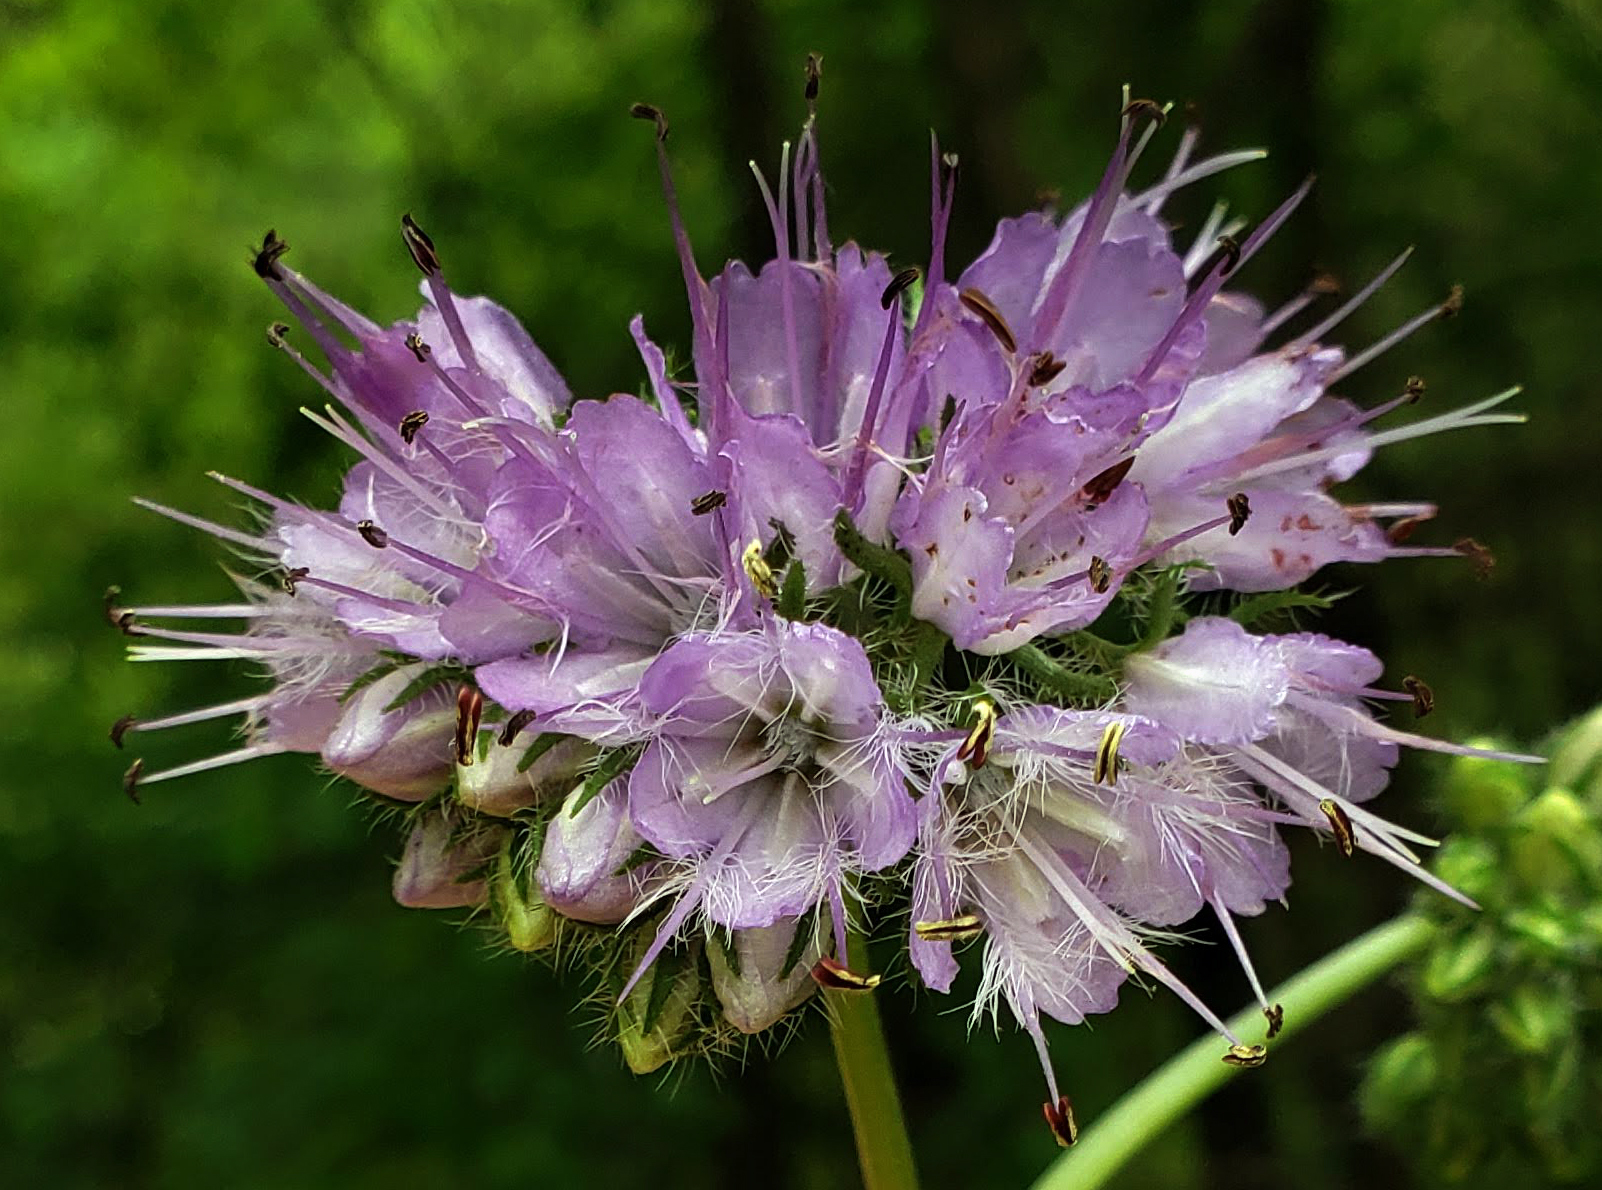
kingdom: Plantae
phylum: Tracheophyta
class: Magnoliopsida
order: Boraginales
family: Hydrophyllaceae
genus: Hydrophyllum
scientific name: Hydrophyllum virginianum
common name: Virginia waterleaf
